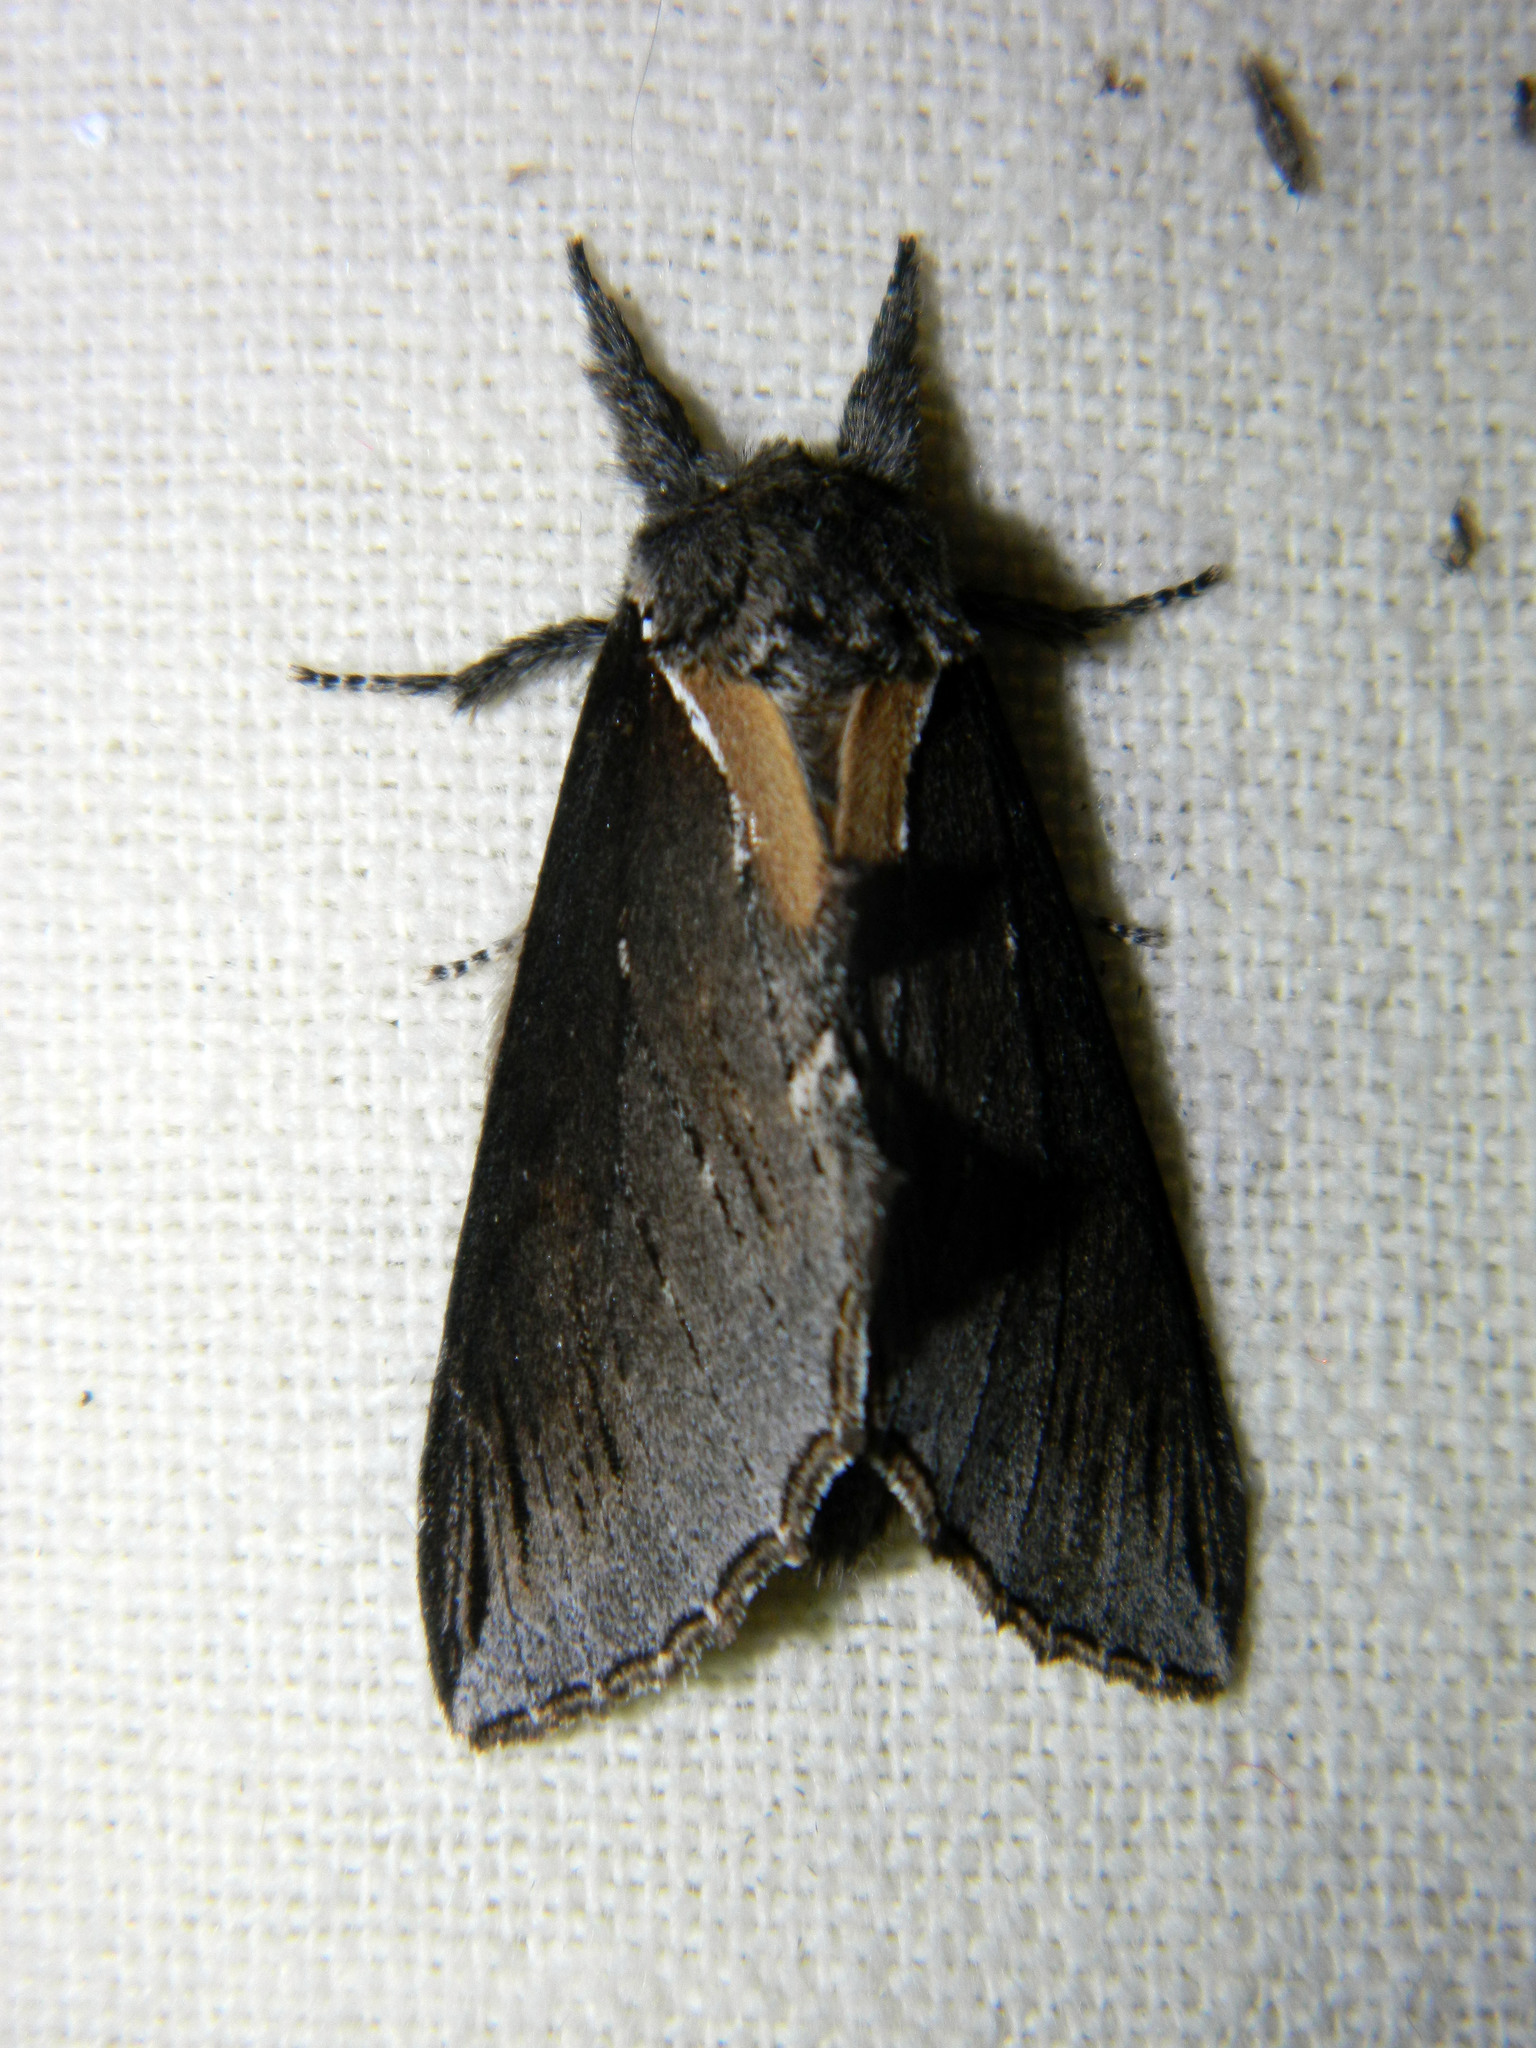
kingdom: Animalia
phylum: Arthropoda
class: Insecta
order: Lepidoptera
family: Notodontidae
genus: Pheosidea
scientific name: Pheosidea elegans
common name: Elegant prominent
